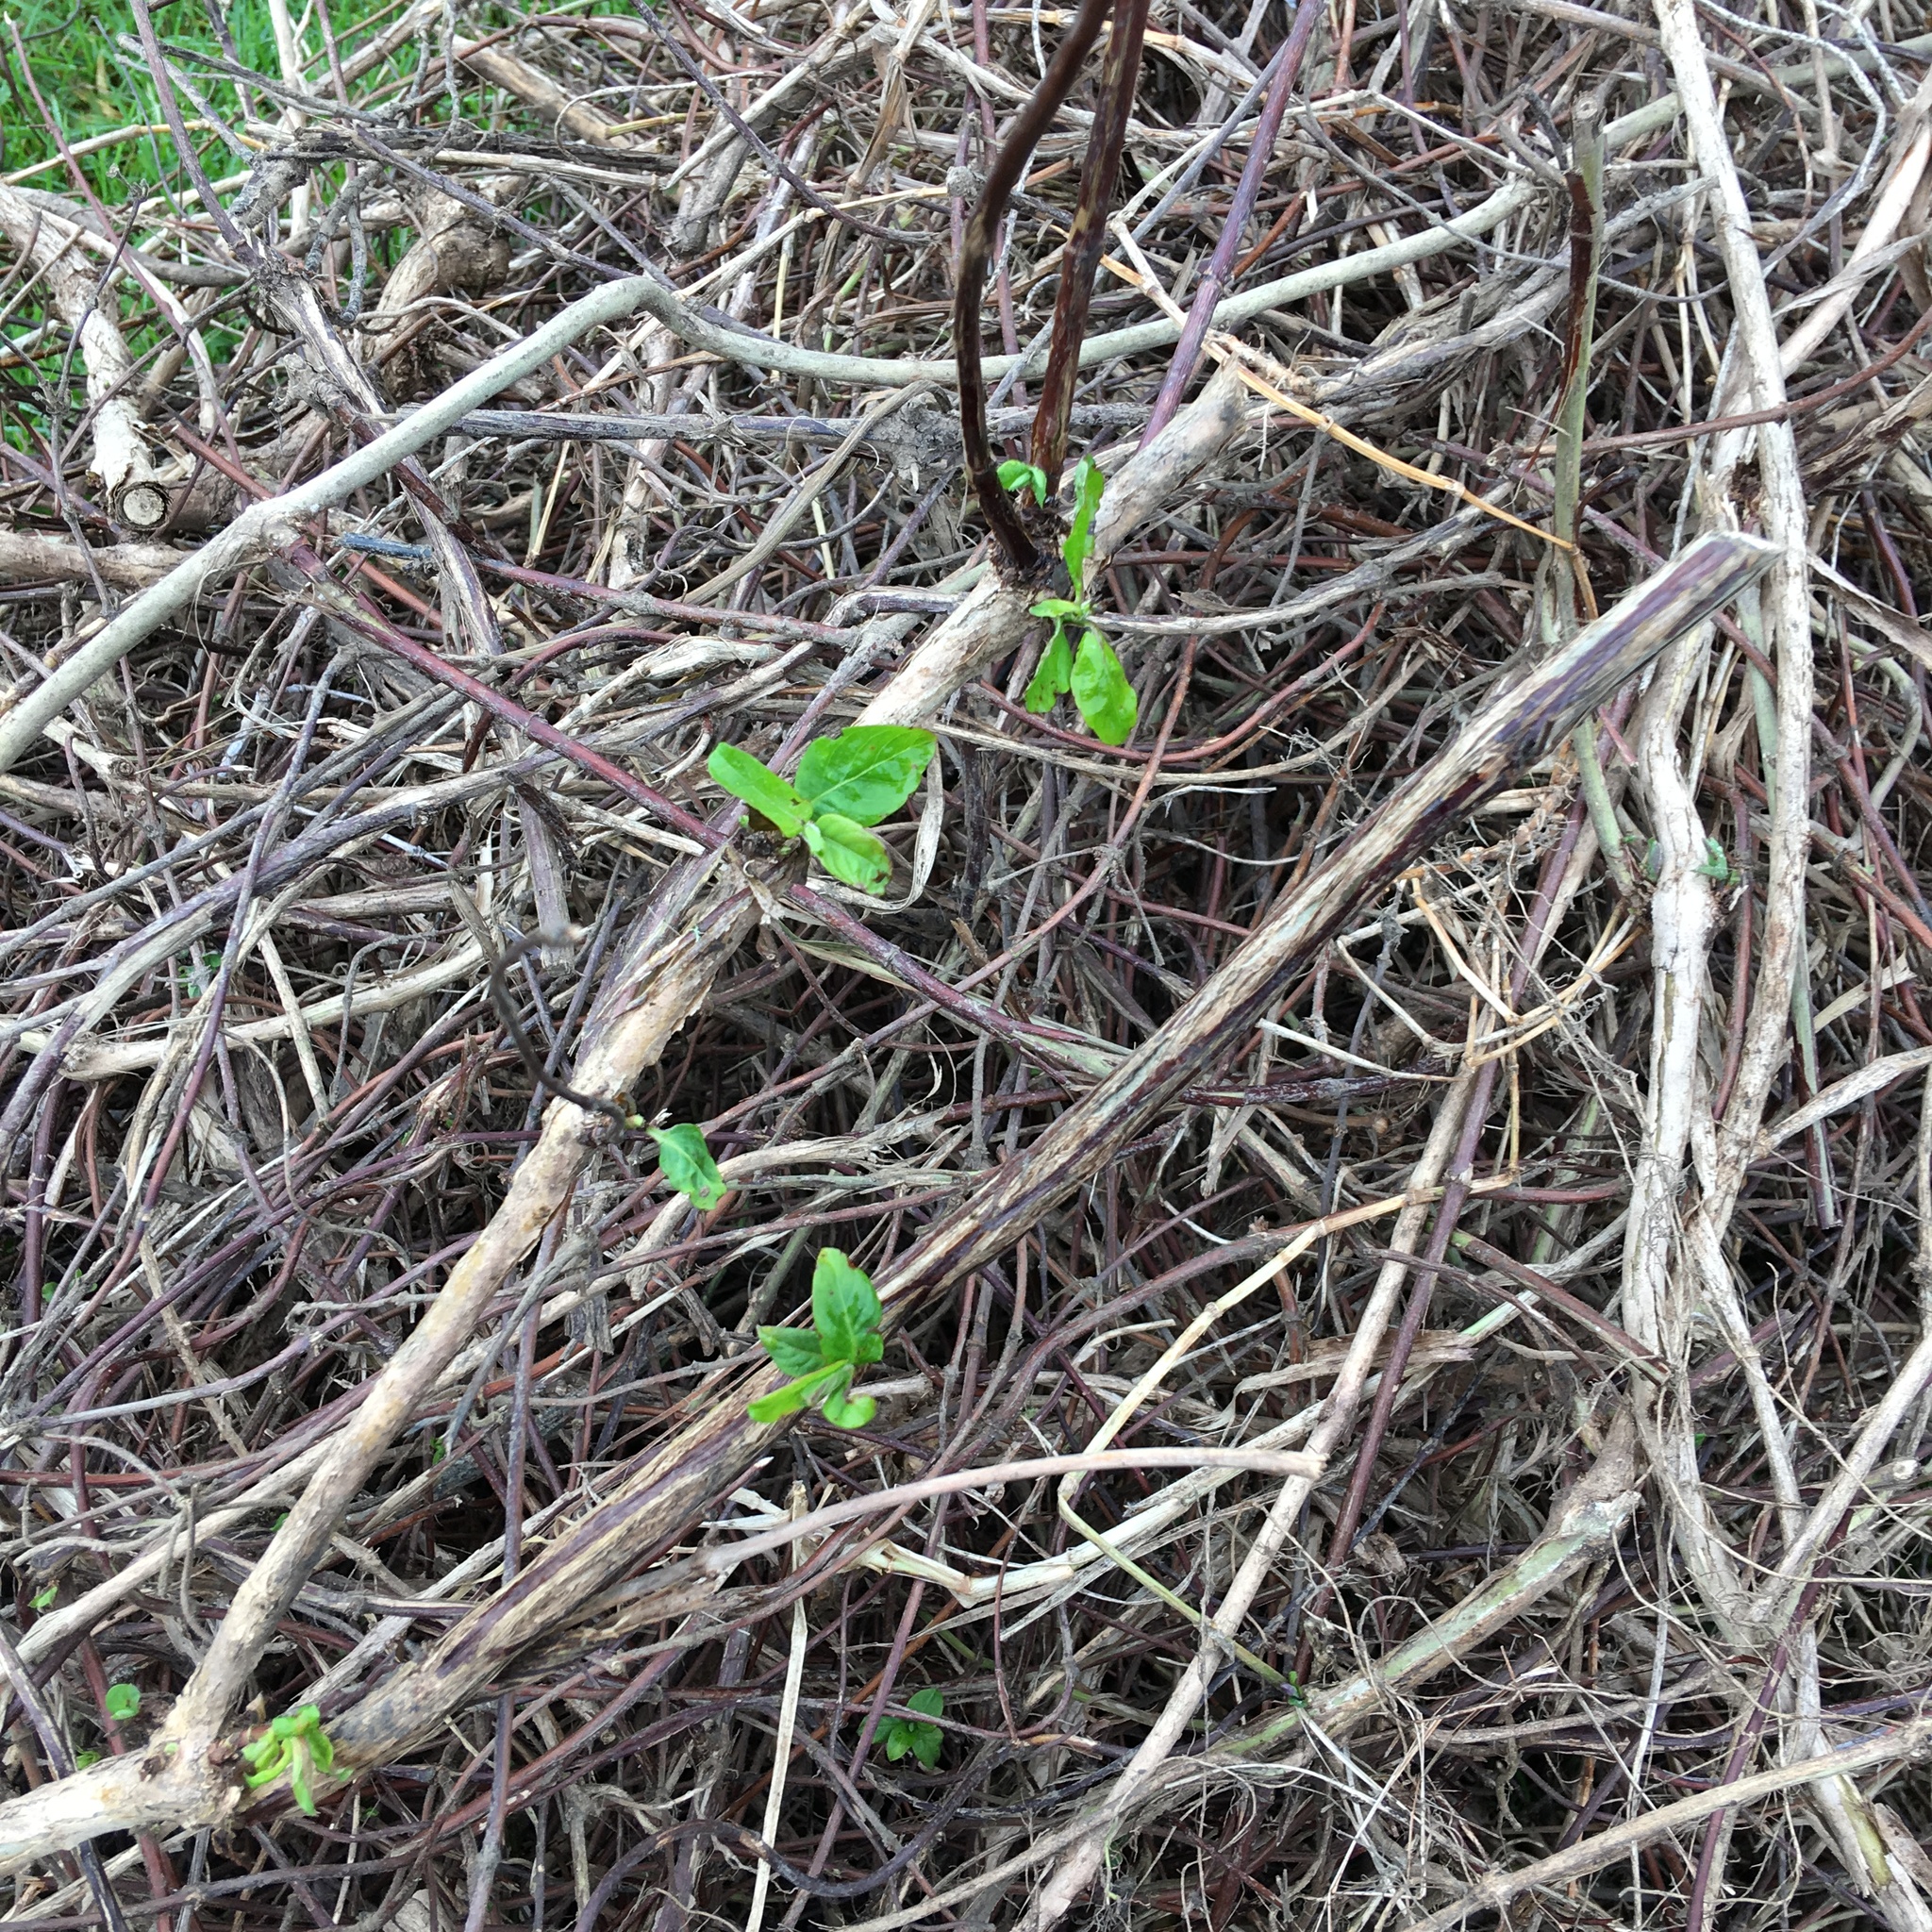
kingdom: Plantae
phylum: Tracheophyta
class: Magnoliopsida
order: Dipsacales
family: Caprifoliaceae
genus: Lonicera
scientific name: Lonicera japonica
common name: Japanese honeysuckle
